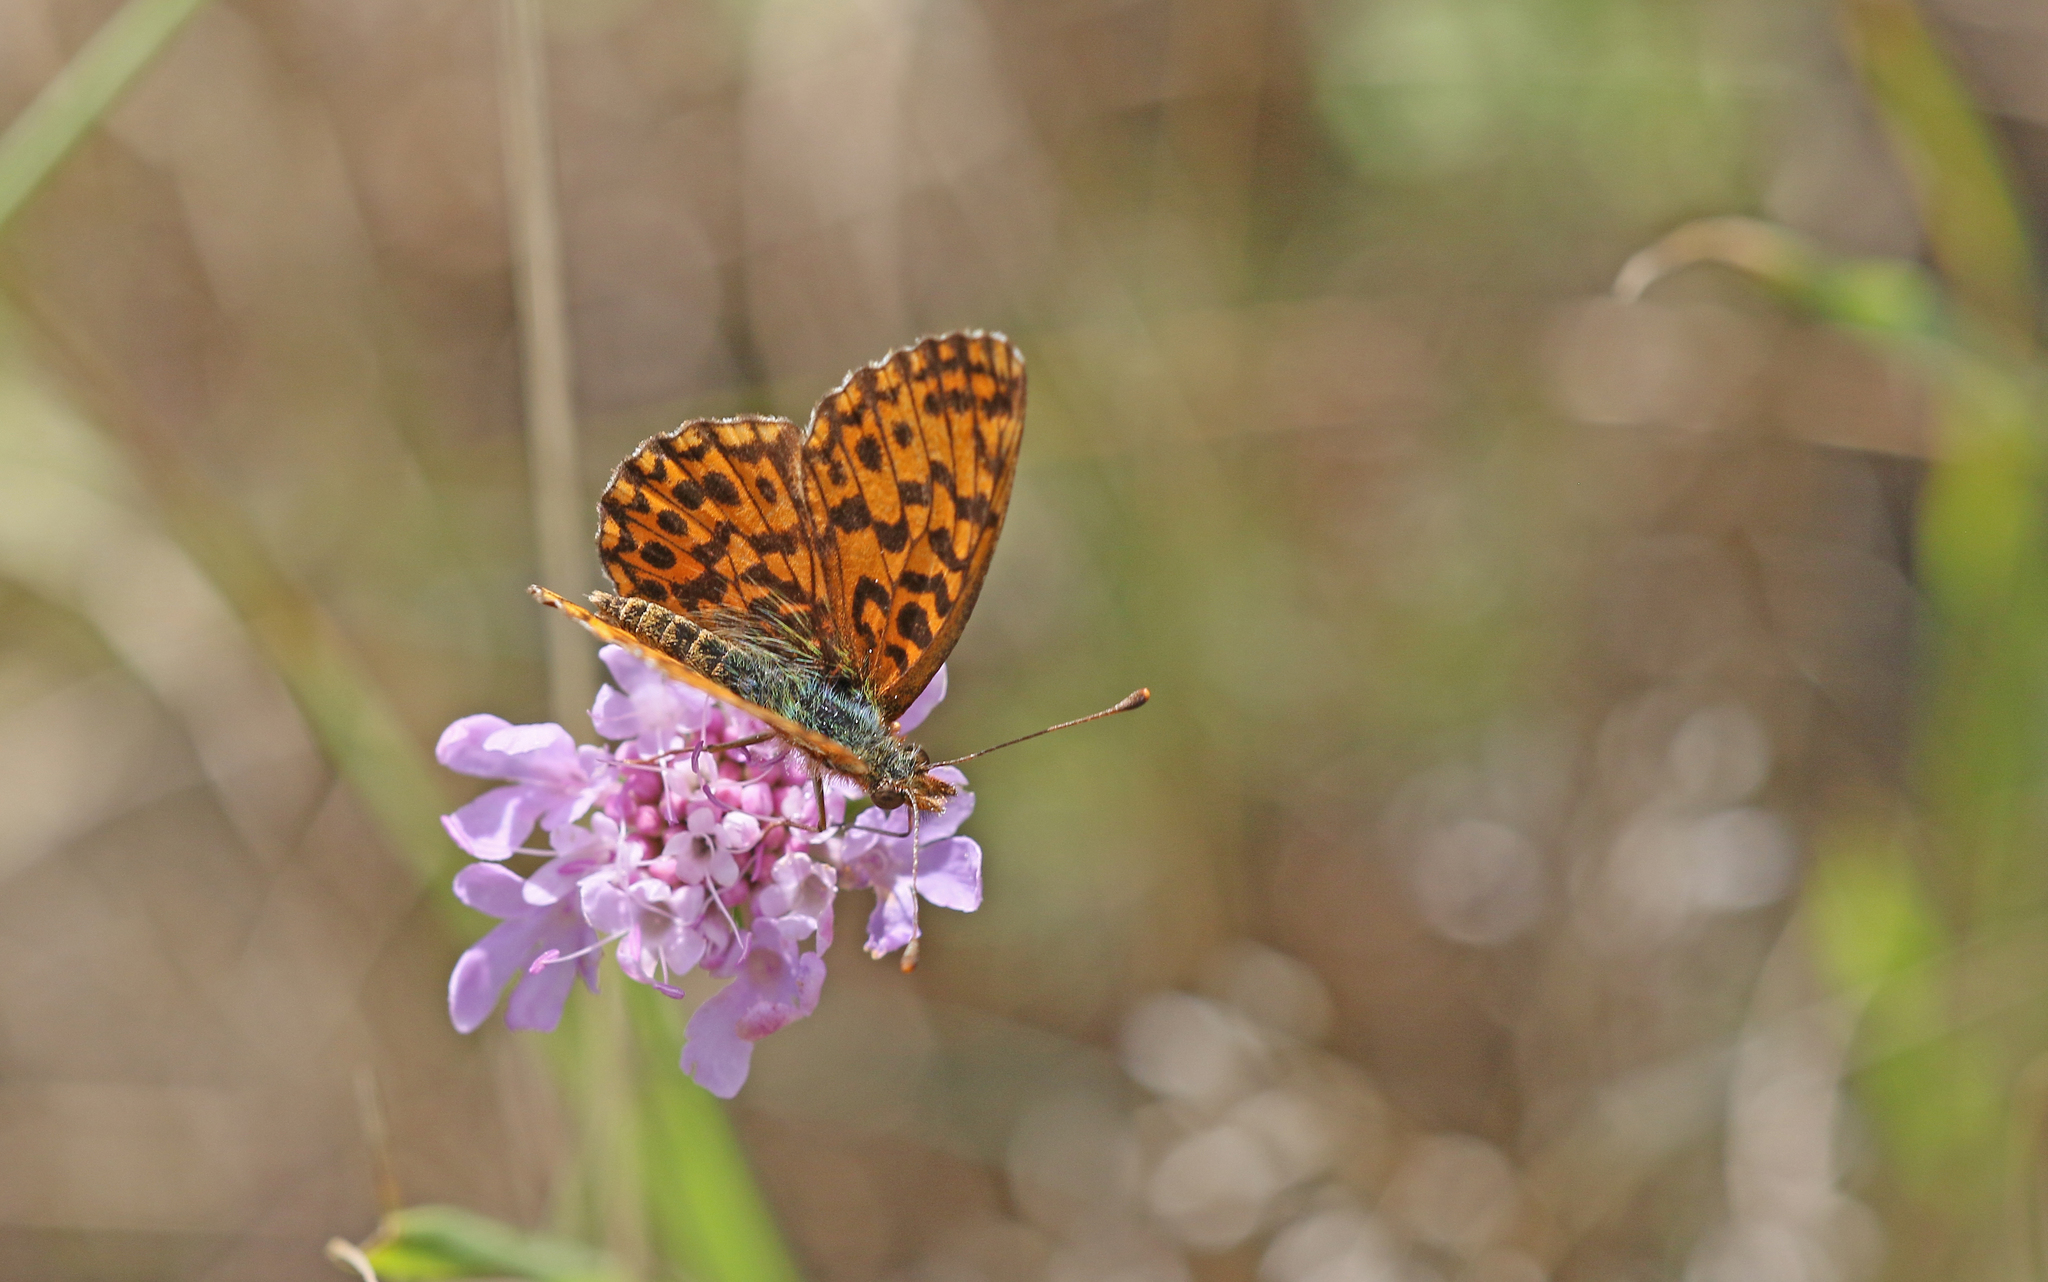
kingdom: Animalia
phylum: Arthropoda
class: Insecta
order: Lepidoptera
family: Nymphalidae
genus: Boloria
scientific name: Boloria dia
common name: Weaver's fritillary
